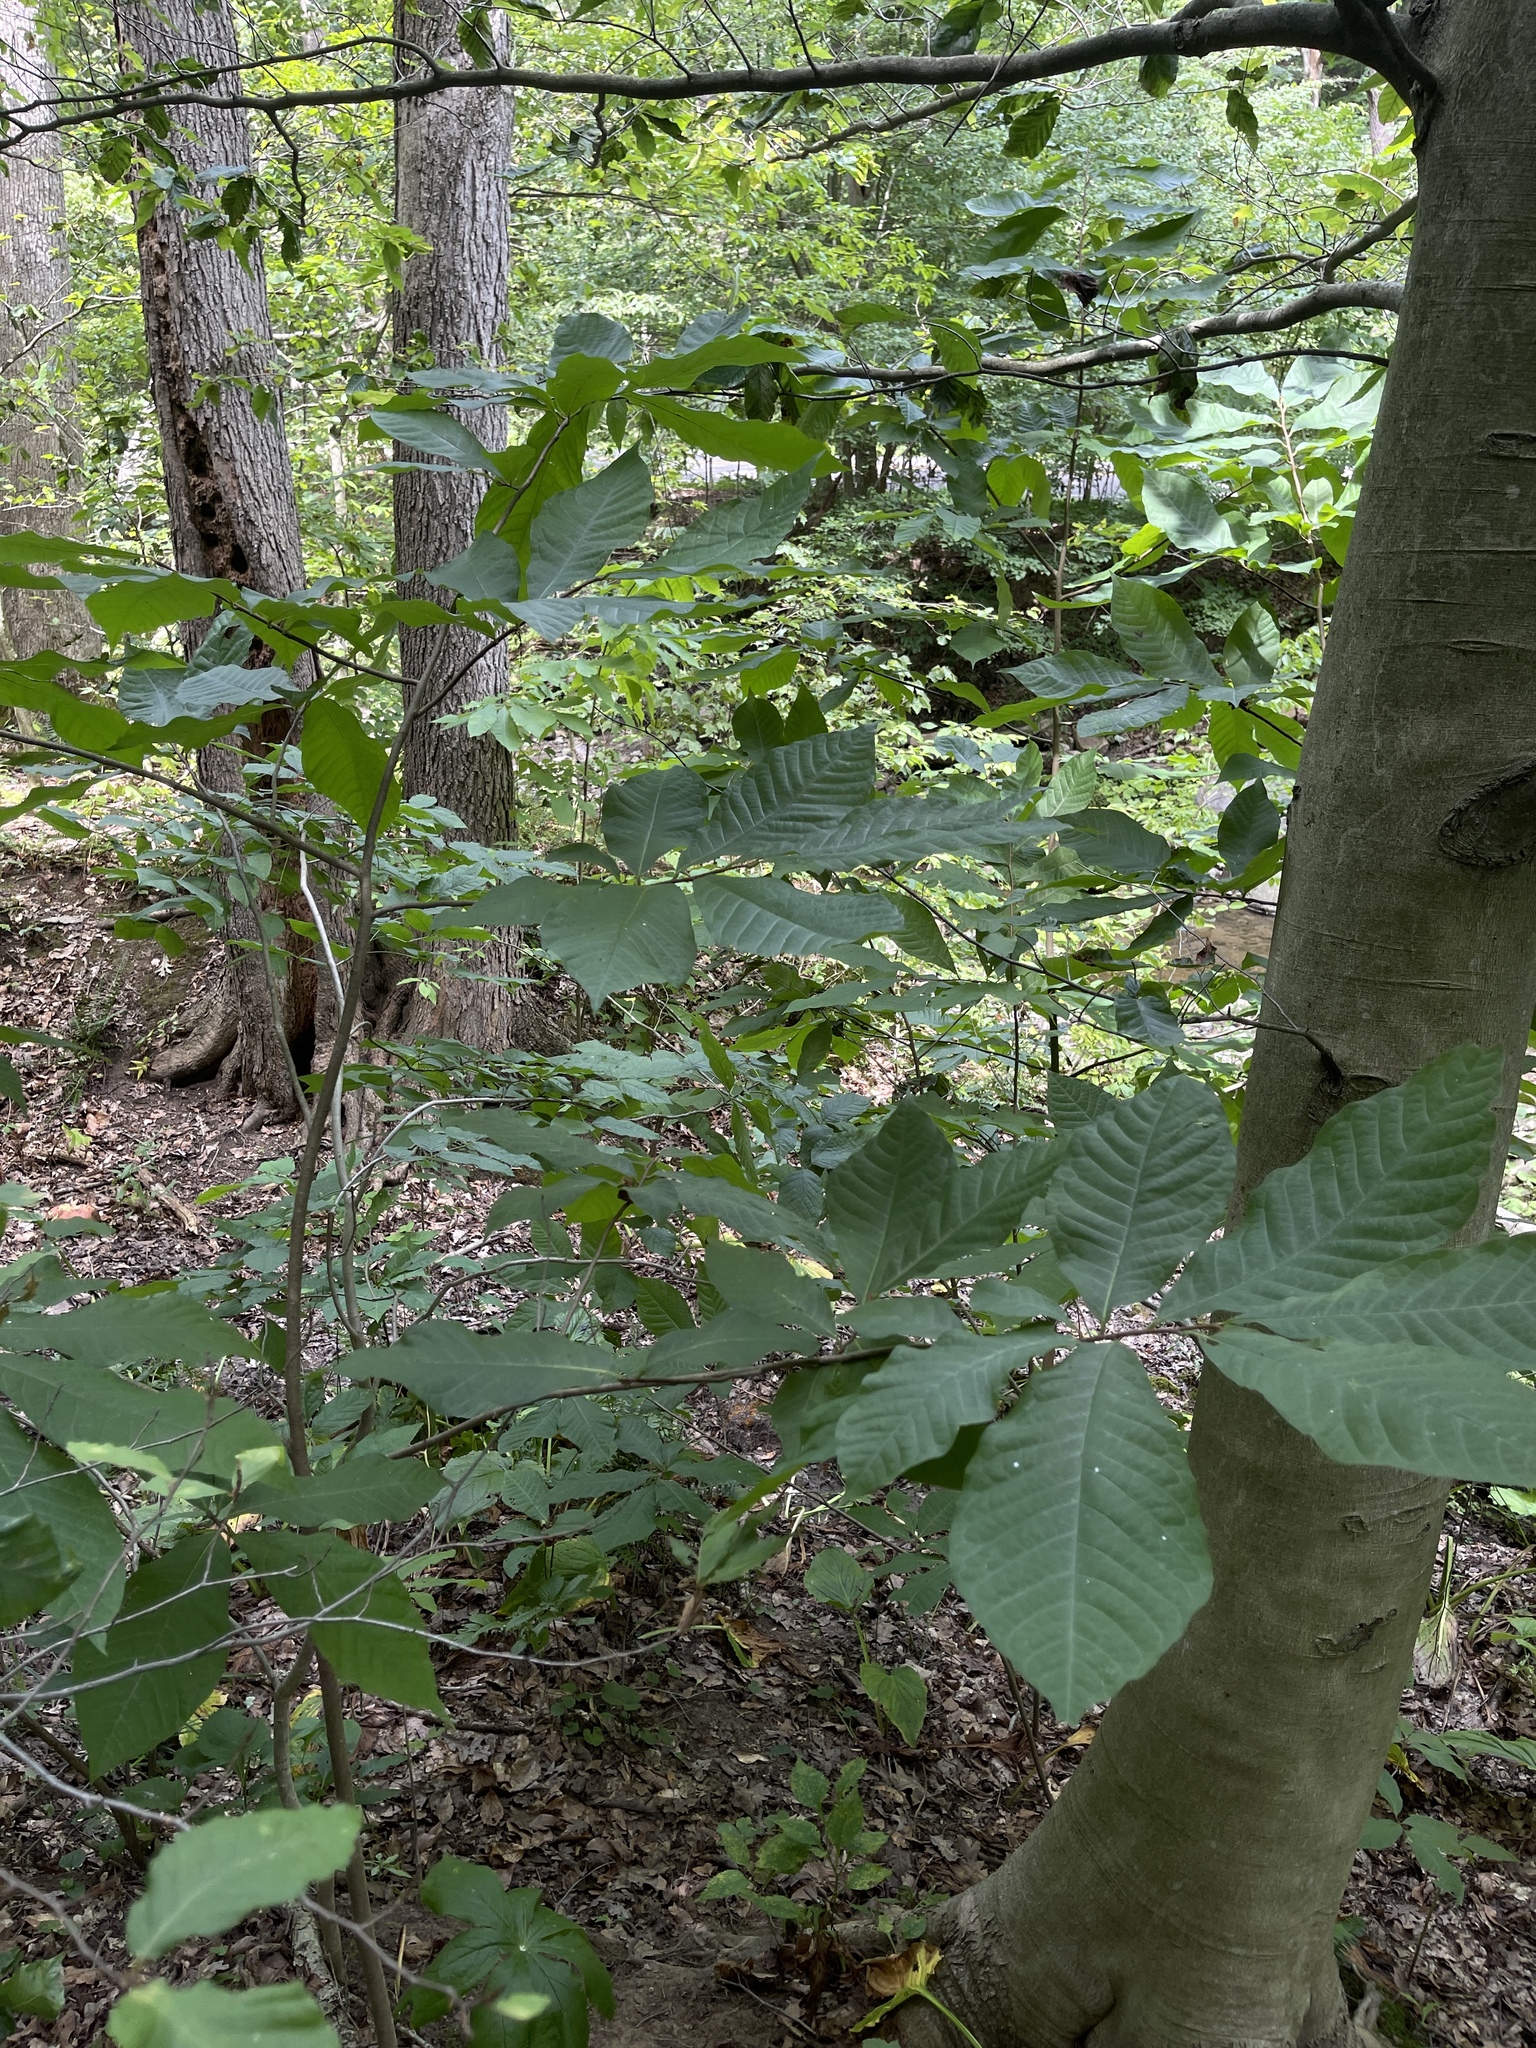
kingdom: Plantae
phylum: Tracheophyta
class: Magnoliopsida
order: Magnoliales
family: Annonaceae
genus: Asimina
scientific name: Asimina triloba
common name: Dog-banana
